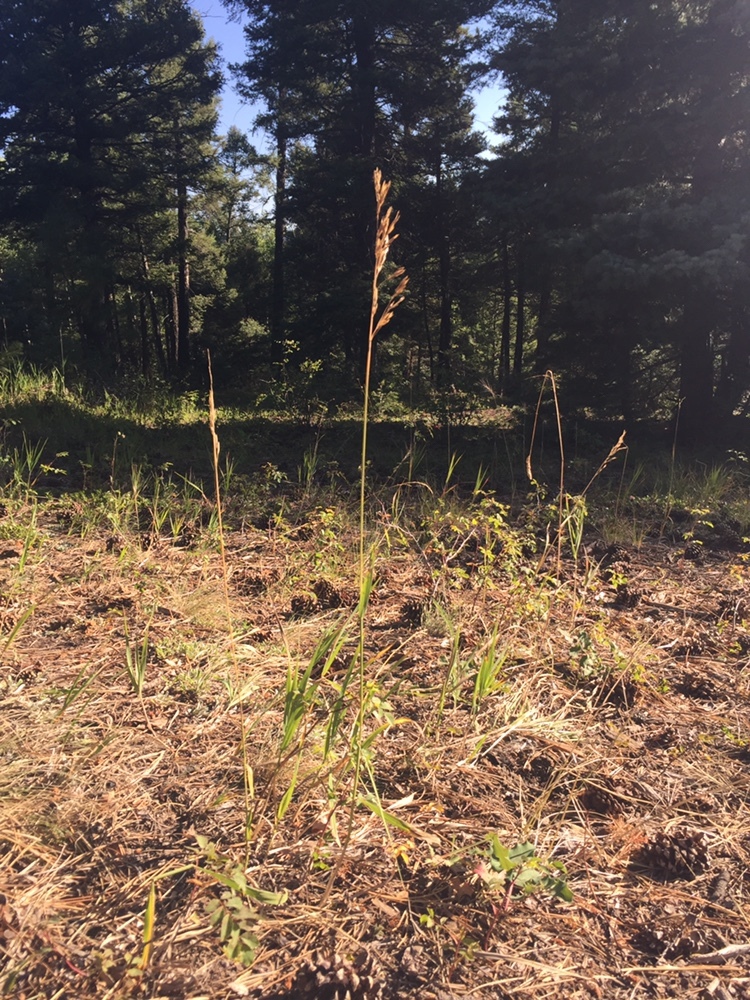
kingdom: Plantae
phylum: Tracheophyta
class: Liliopsida
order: Poales
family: Poaceae
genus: Bromus
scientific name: Bromus inermis
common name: Smooth brome
